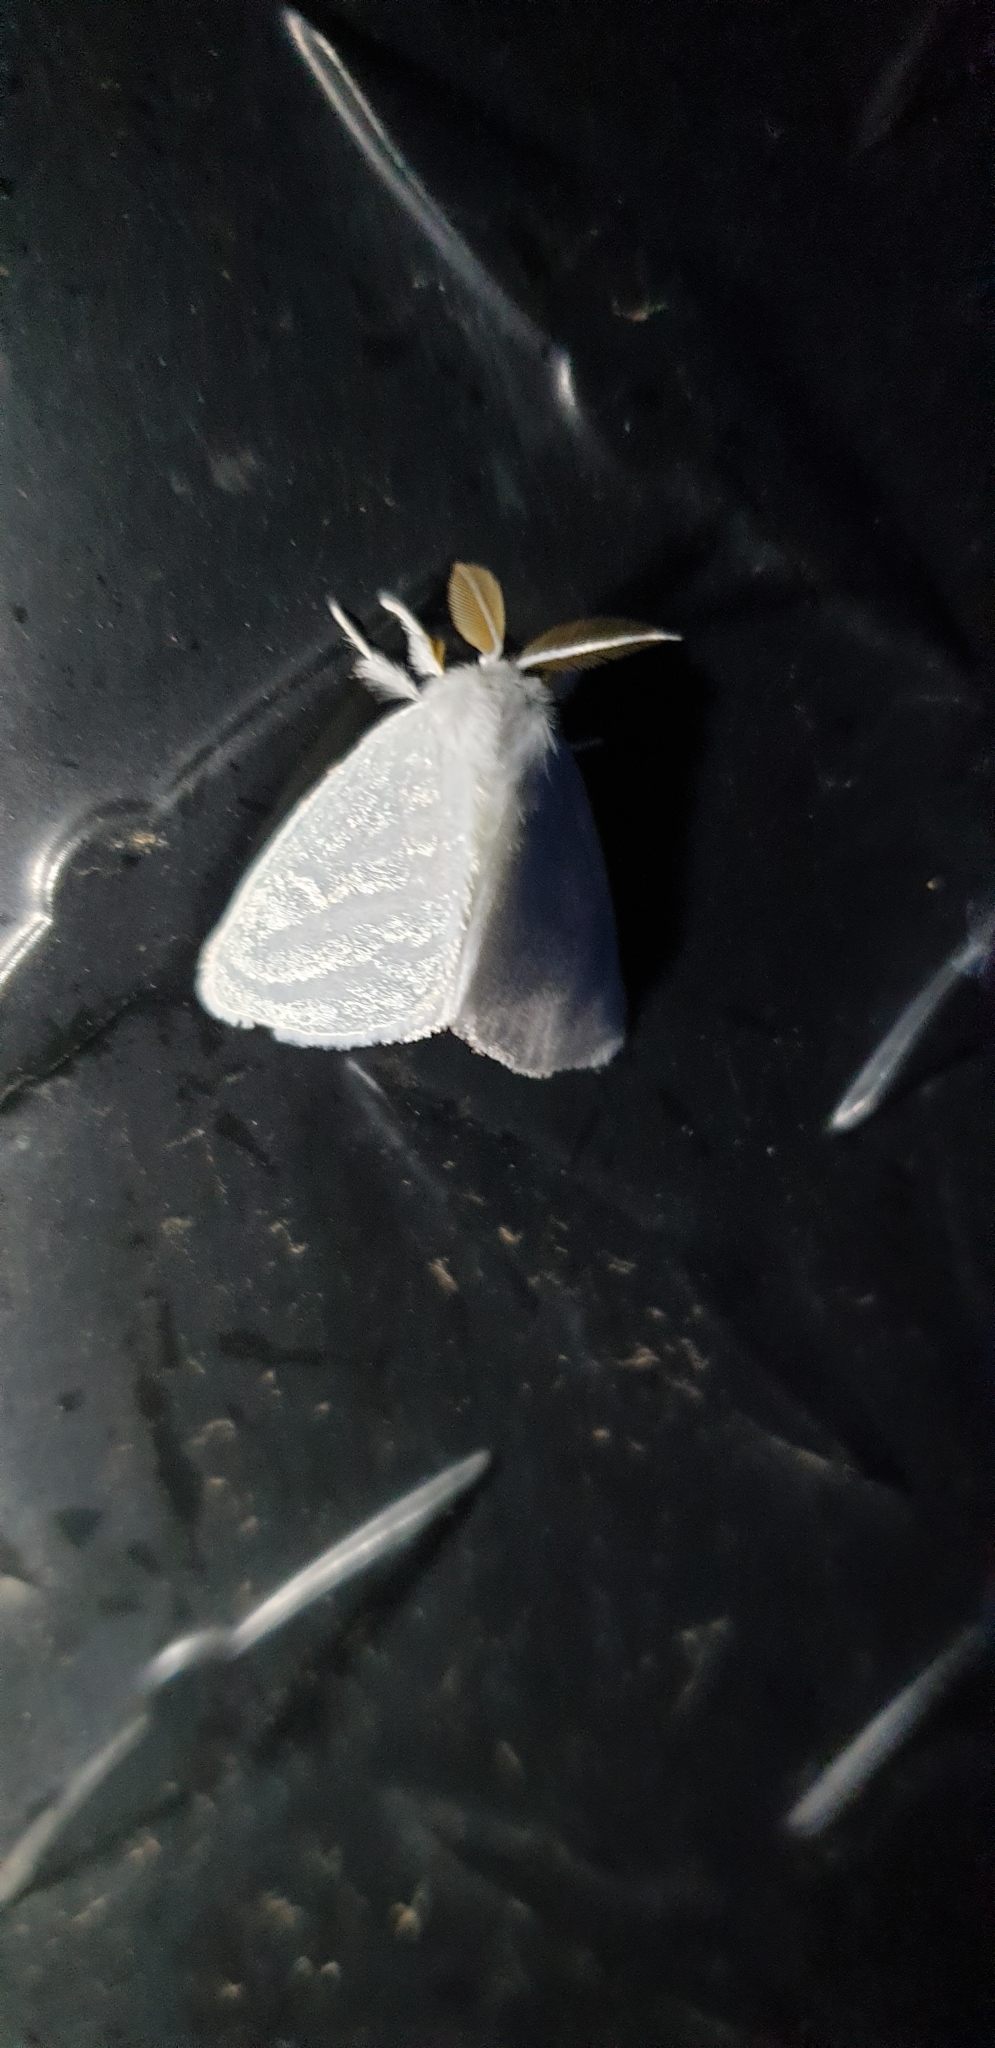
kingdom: Animalia
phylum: Arthropoda
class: Insecta
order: Lepidoptera
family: Erebidae
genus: Euzora
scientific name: Euzora collucens
